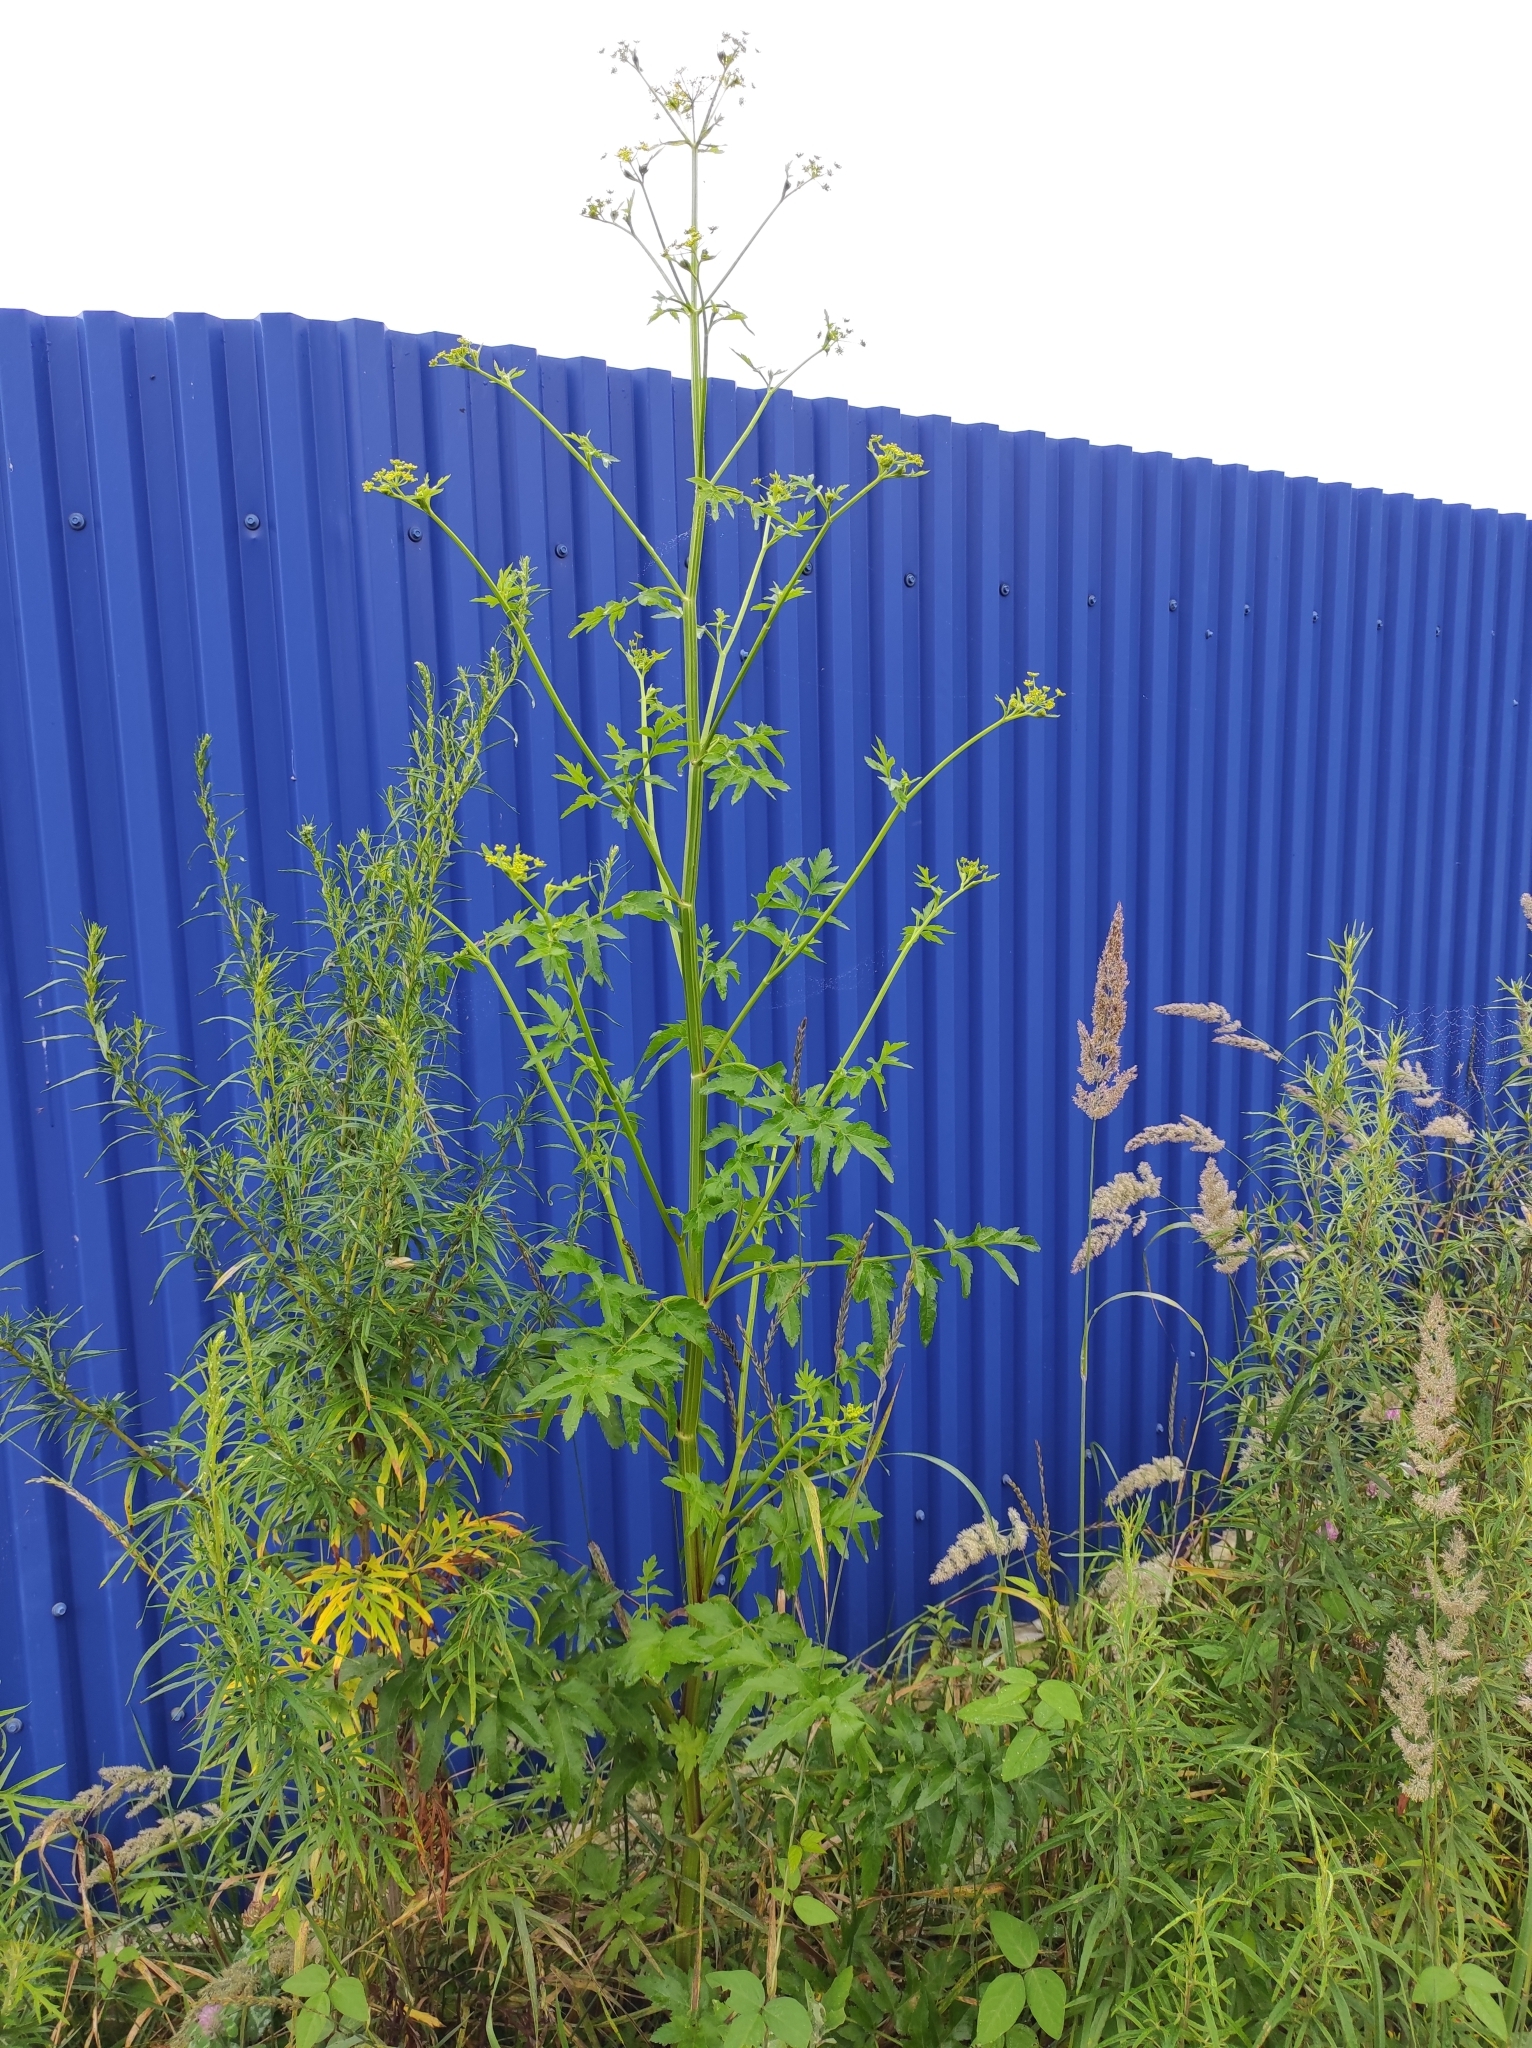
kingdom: Plantae
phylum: Tracheophyta
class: Magnoliopsida
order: Apiales
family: Apiaceae
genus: Pastinaca
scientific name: Pastinaca sativa
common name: Wild parsnip
